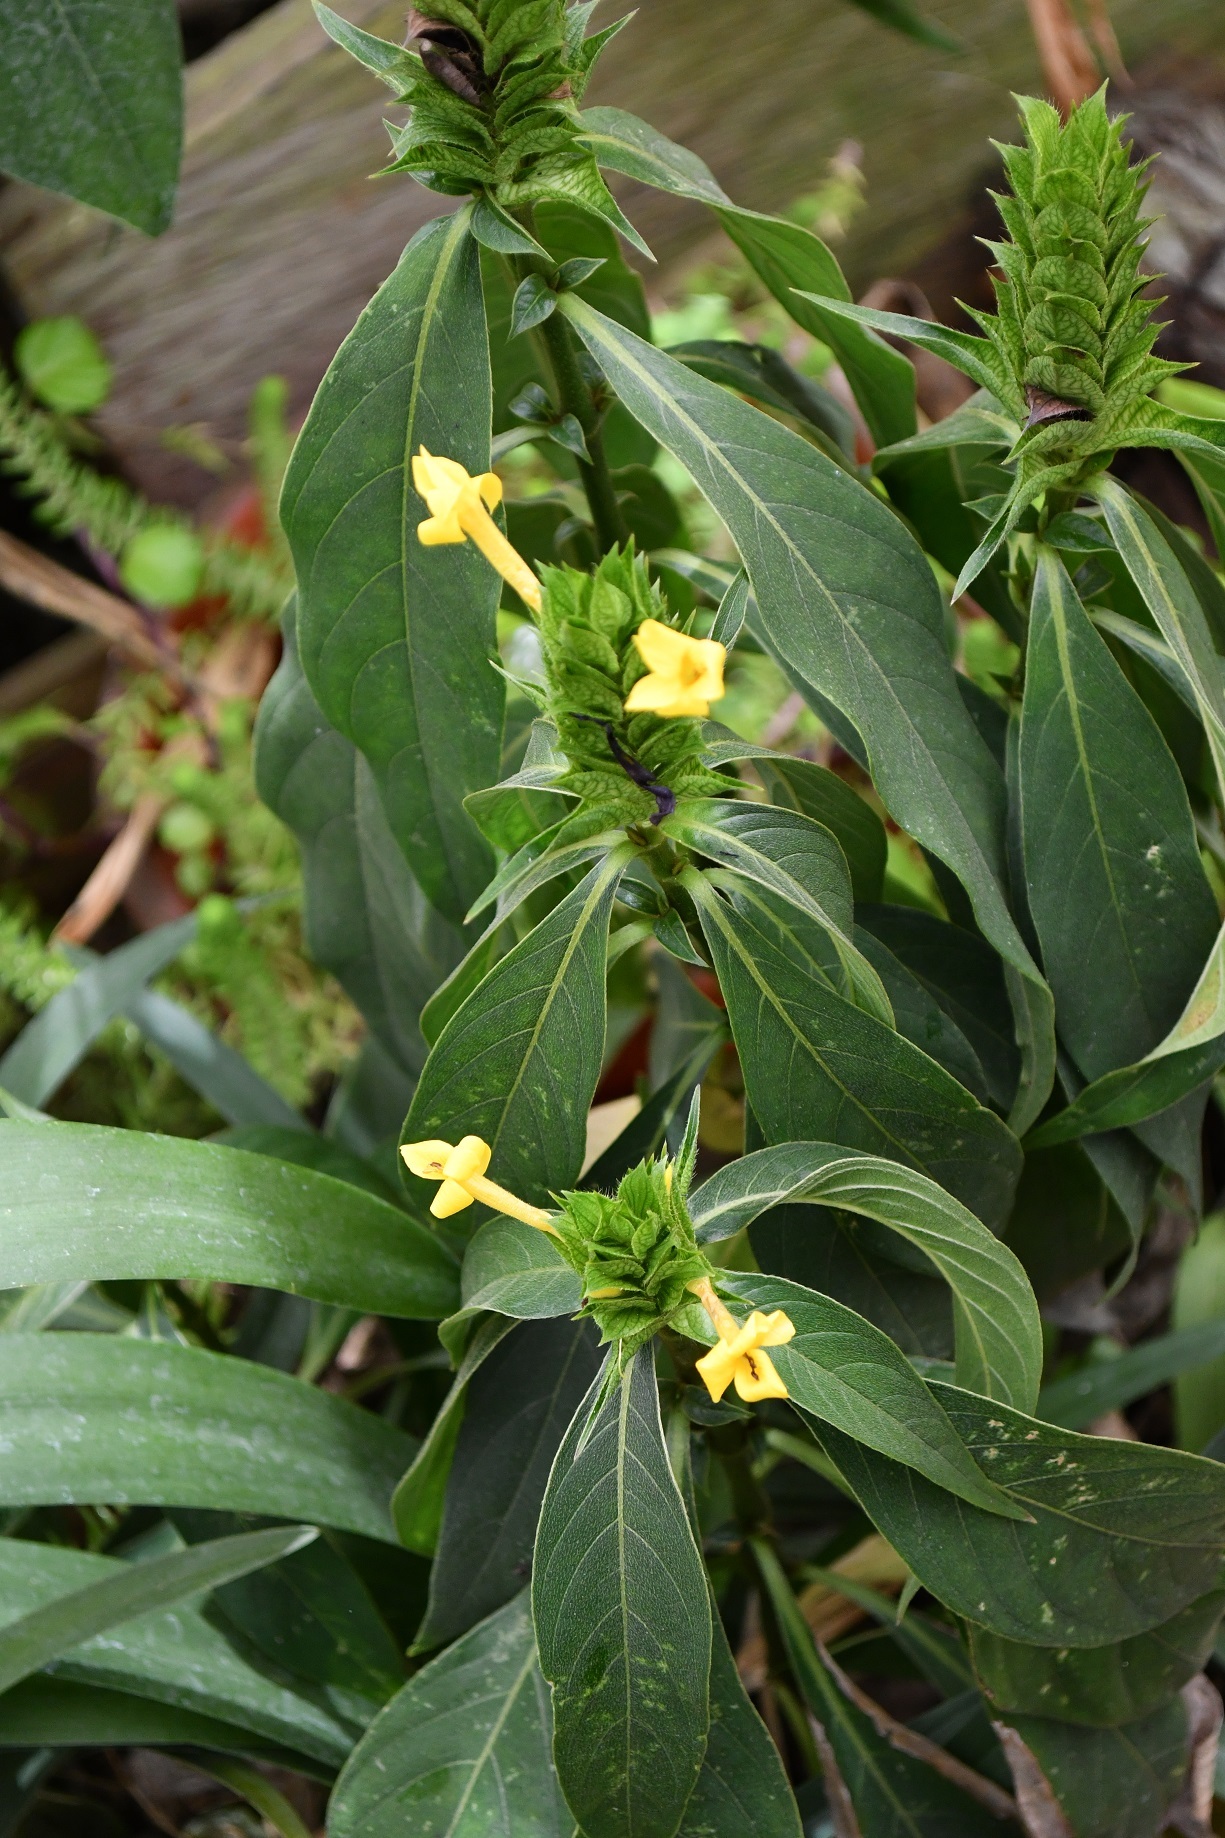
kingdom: Plantae
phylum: Tracheophyta
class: Magnoliopsida
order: Lamiales
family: Acanthaceae
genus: Barleria
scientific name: Barleria oenotheroides
